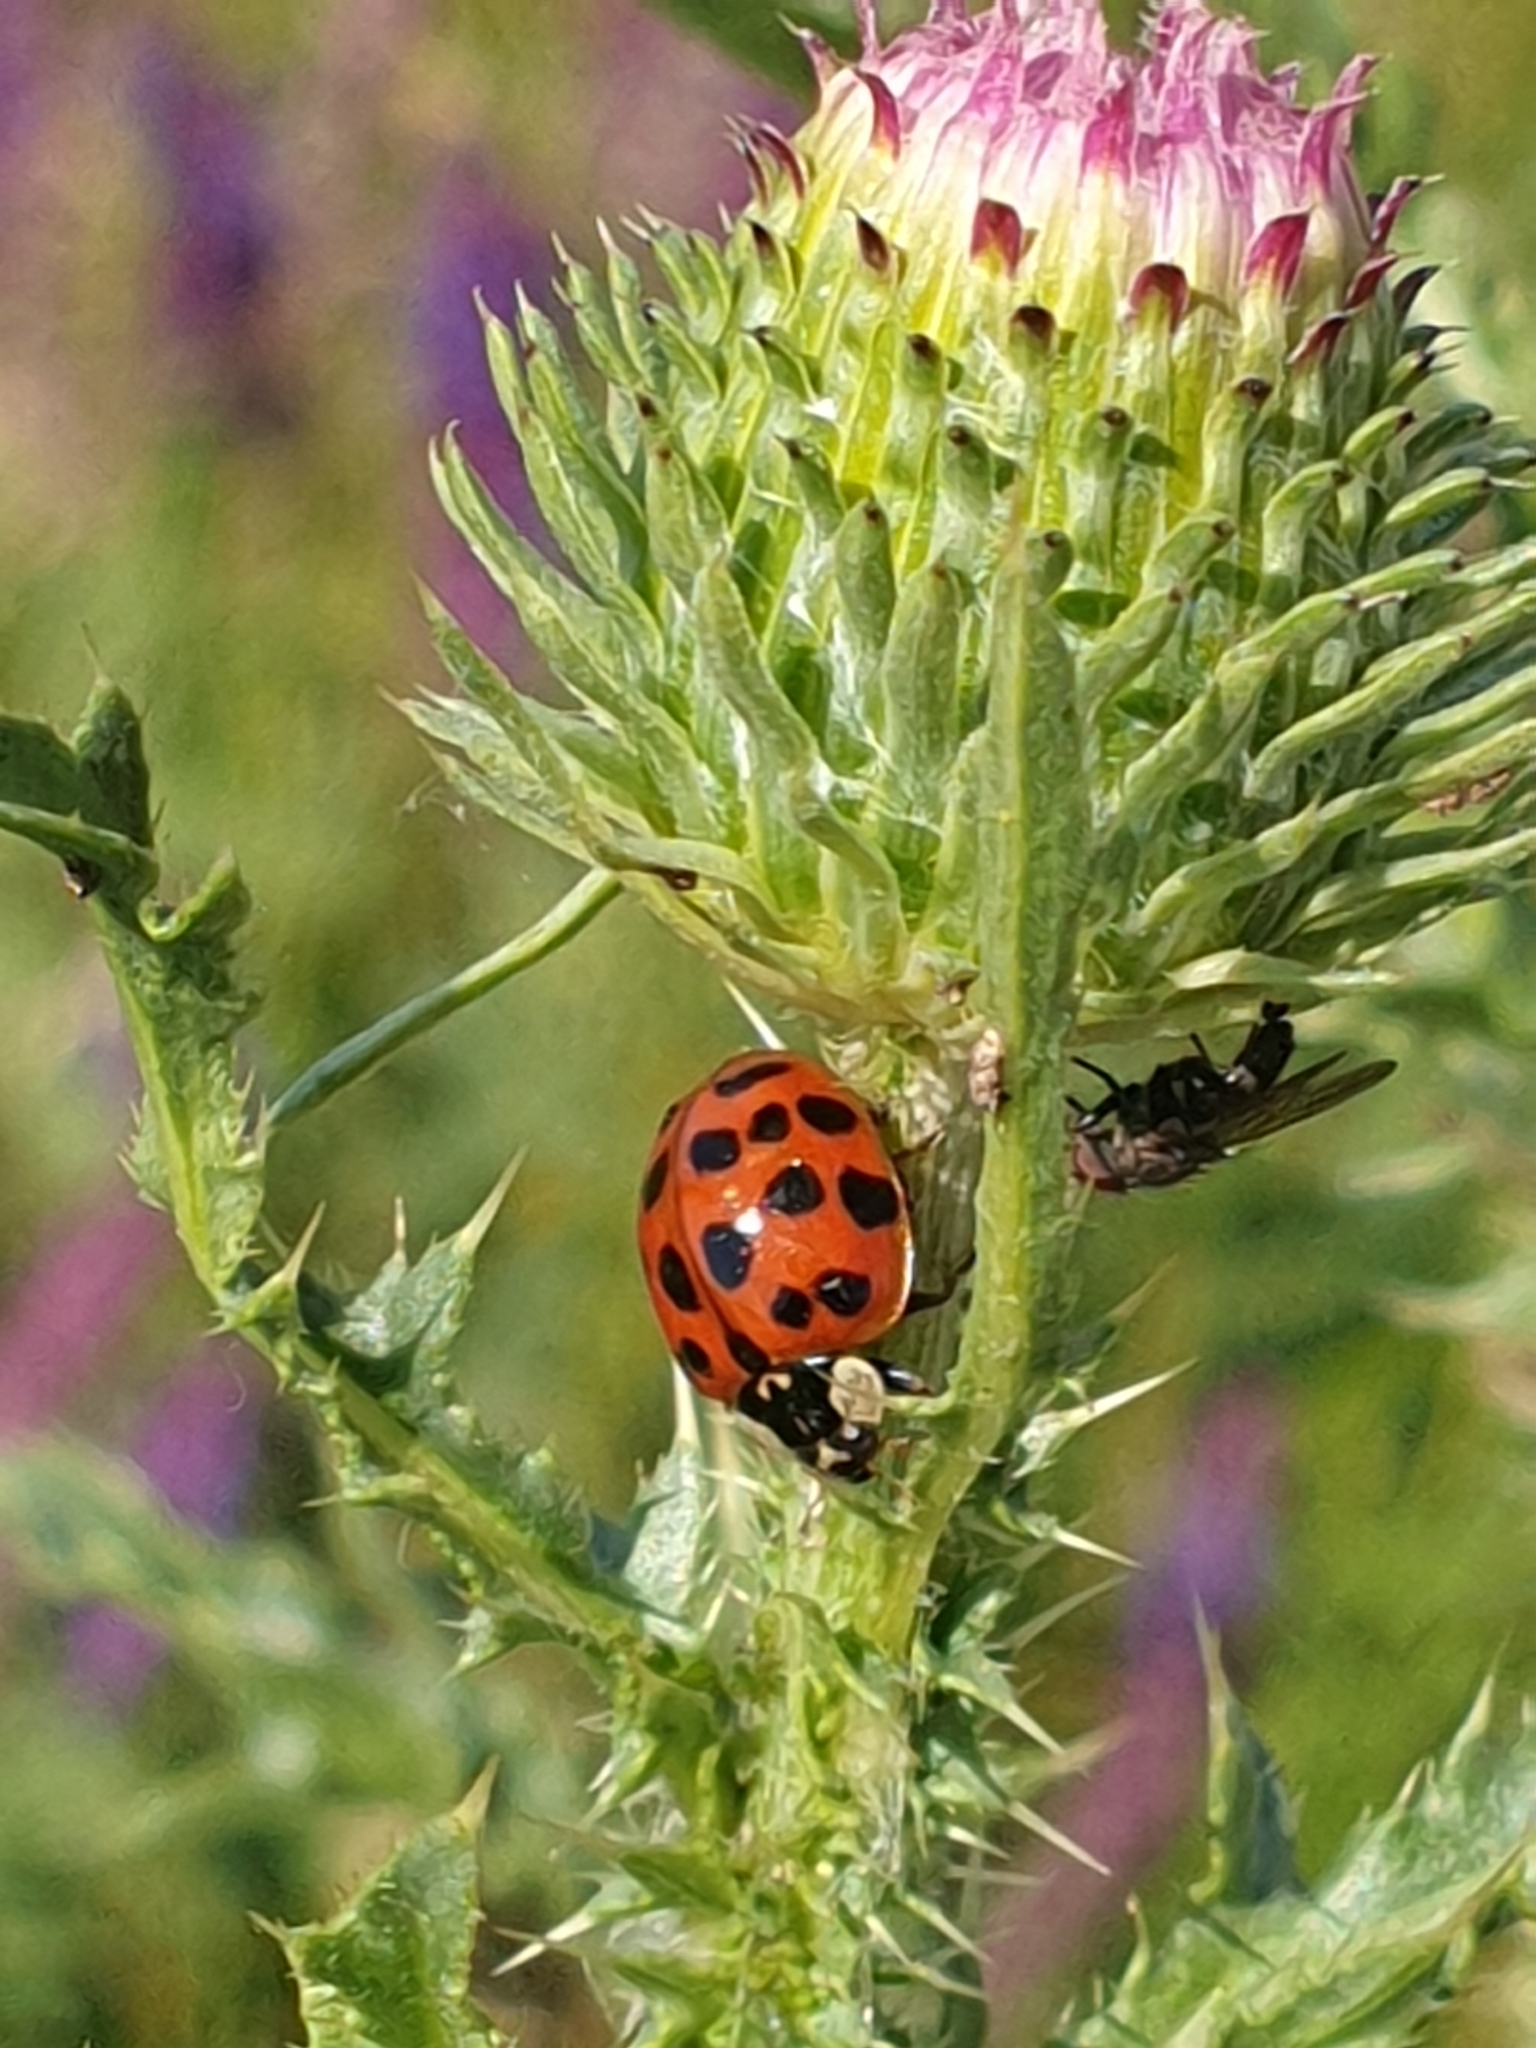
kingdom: Animalia
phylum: Arthropoda
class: Insecta
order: Coleoptera
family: Coccinellidae
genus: Harmonia
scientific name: Harmonia axyridis
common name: Harlequin ladybird
